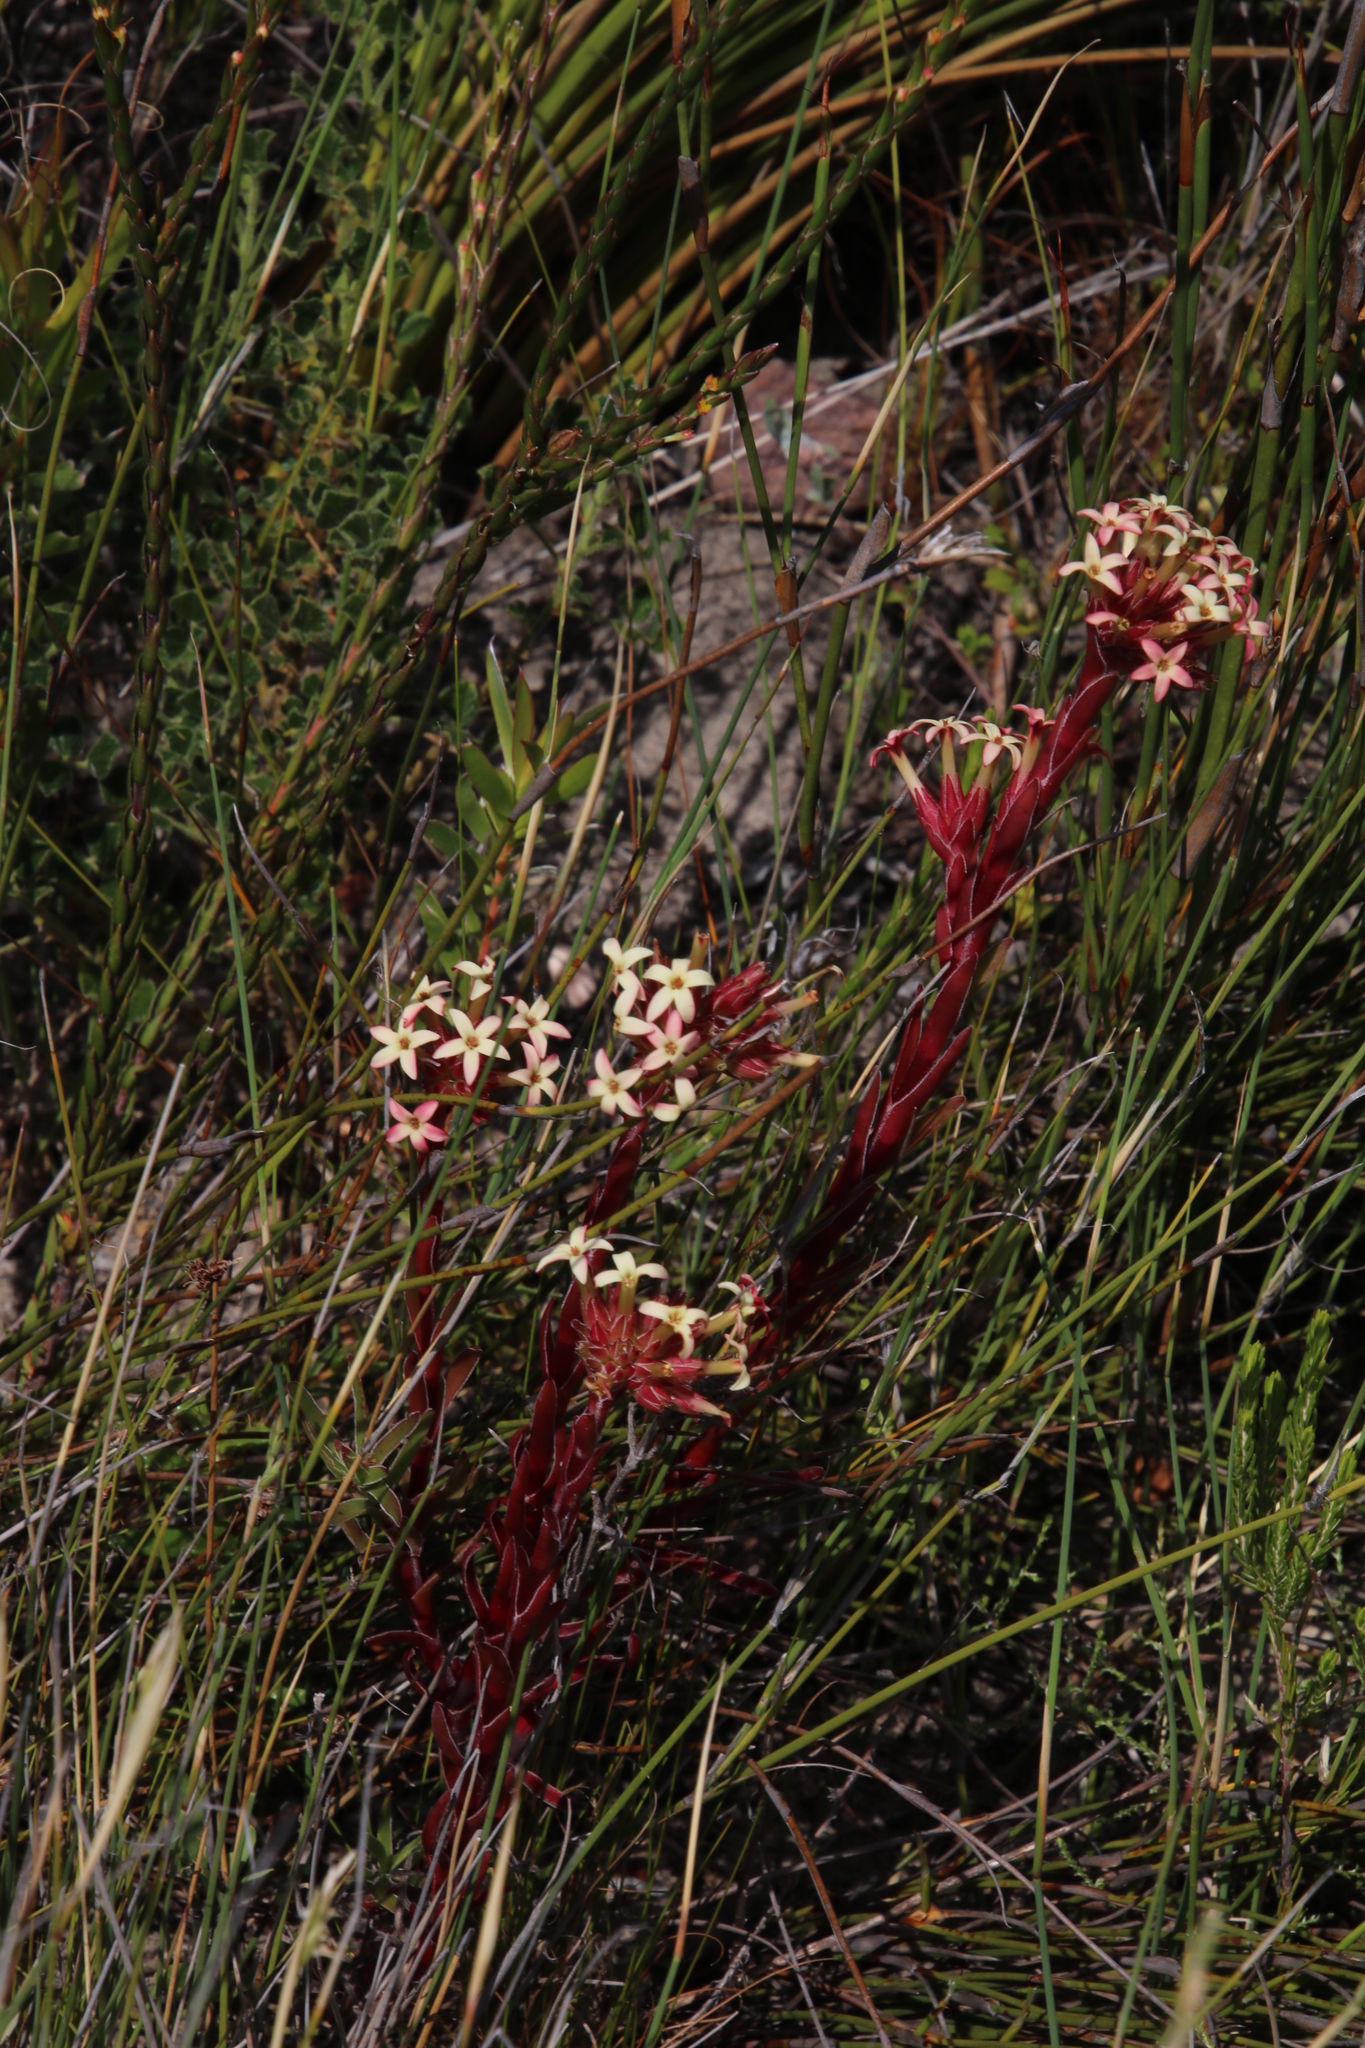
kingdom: Plantae
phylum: Tracheophyta
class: Magnoliopsida
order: Saxifragales
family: Crassulaceae
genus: Crassula
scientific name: Crassula fascicularis
